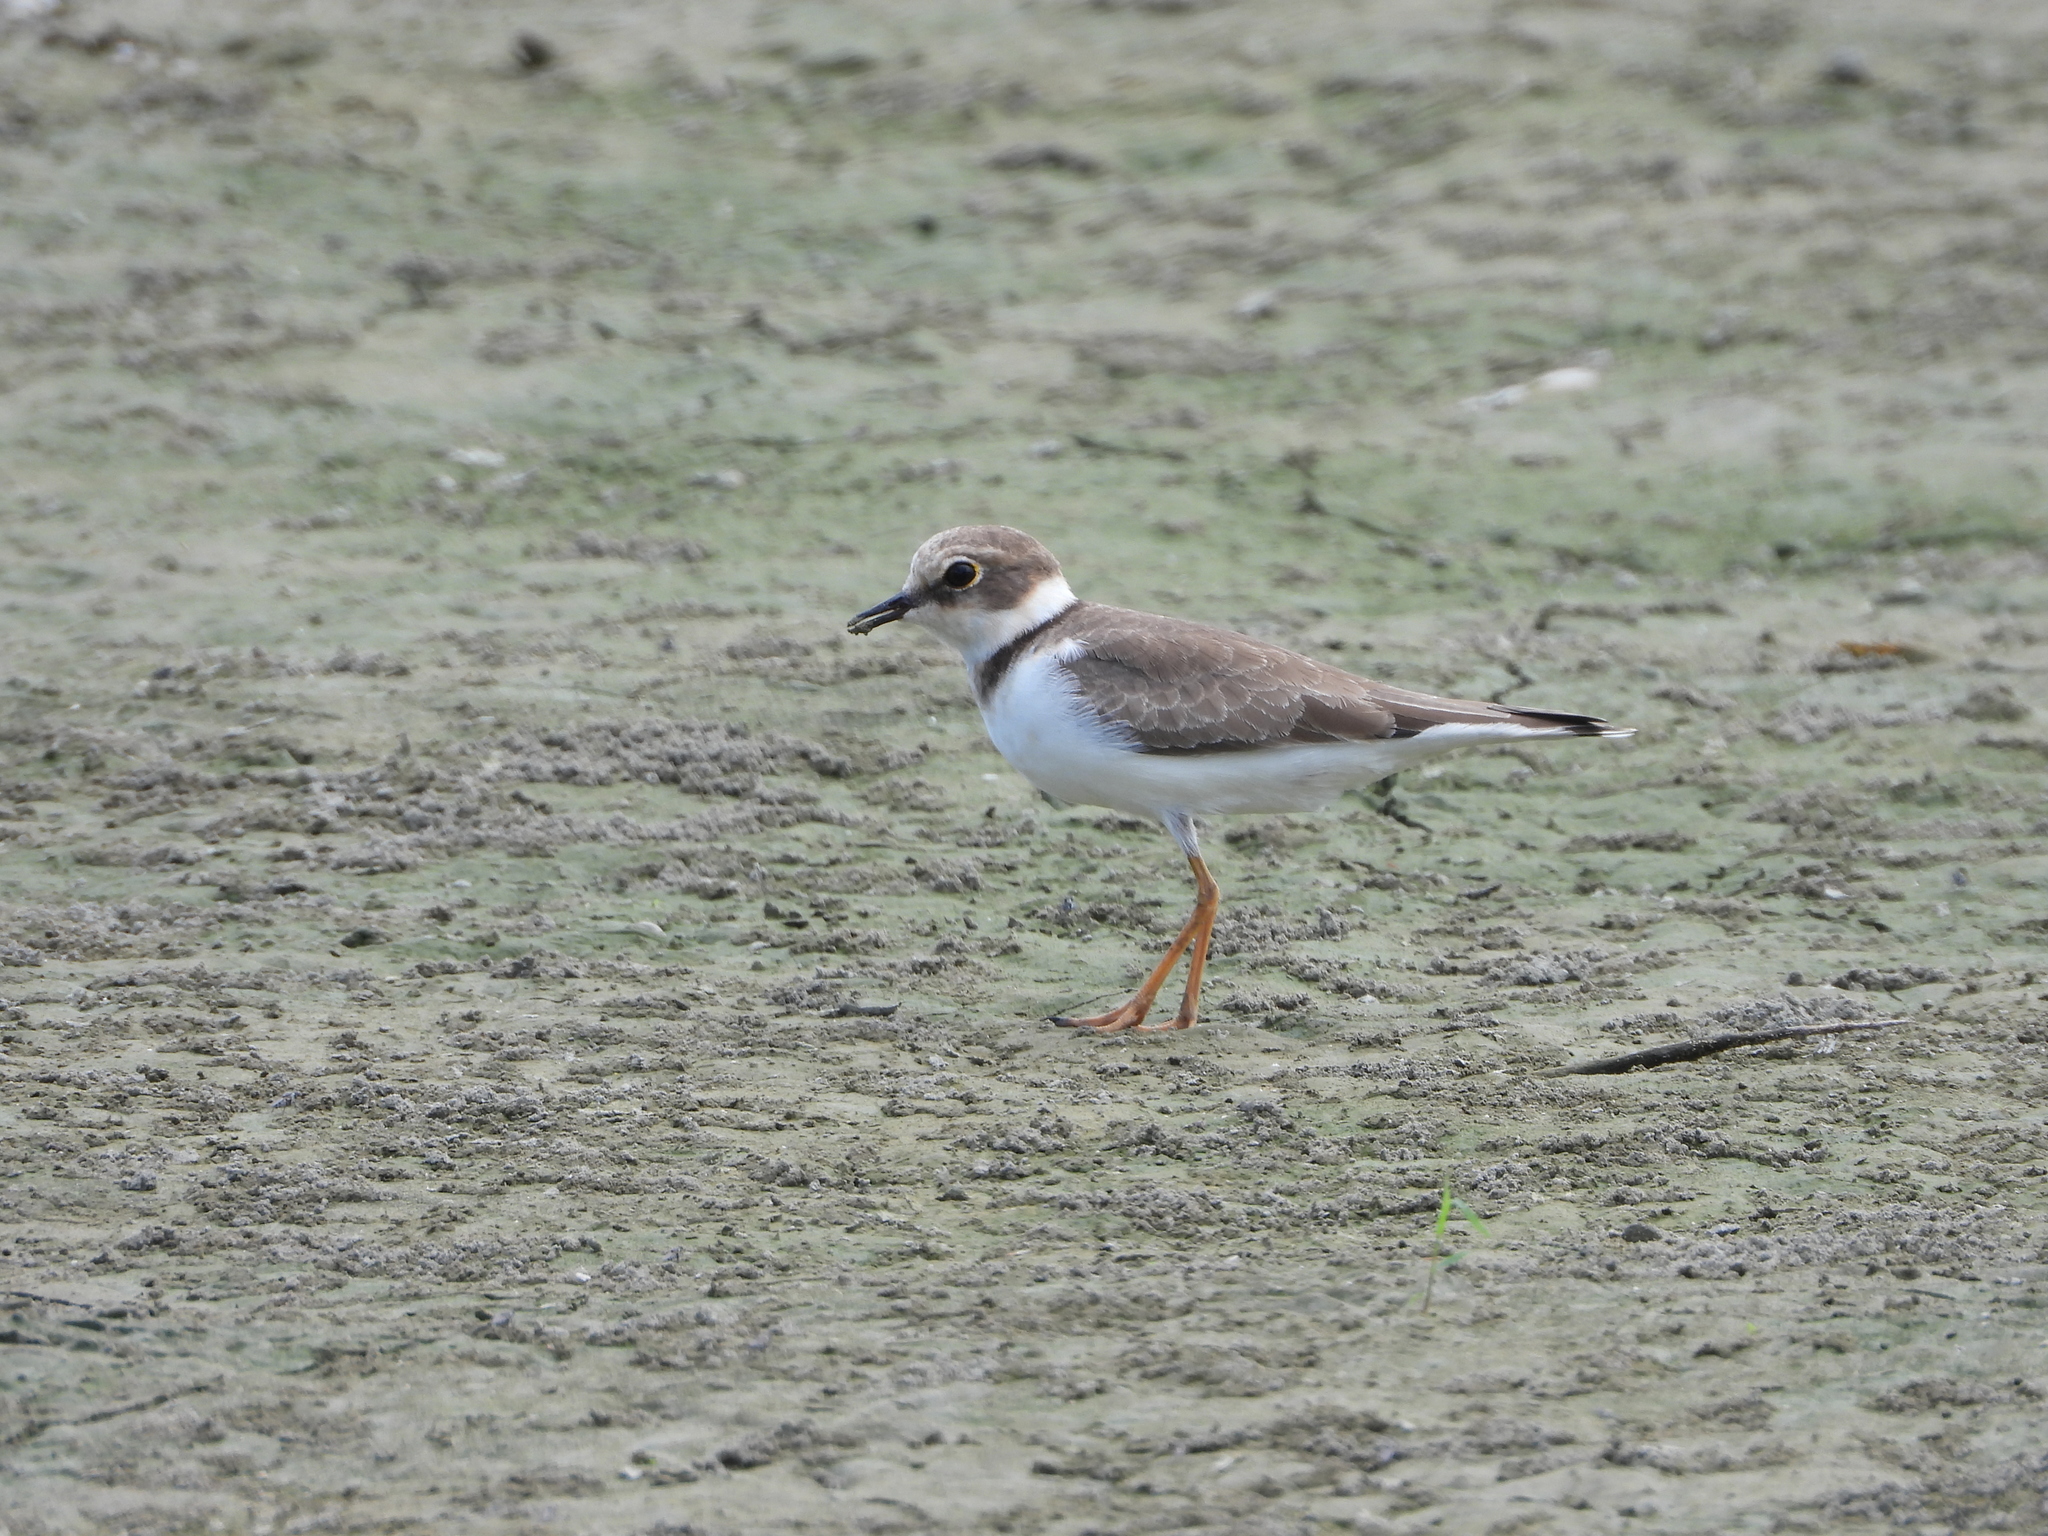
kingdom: Animalia
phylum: Chordata
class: Aves
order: Charadriiformes
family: Charadriidae
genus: Charadrius
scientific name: Charadrius dubius
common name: Little ringed plover
